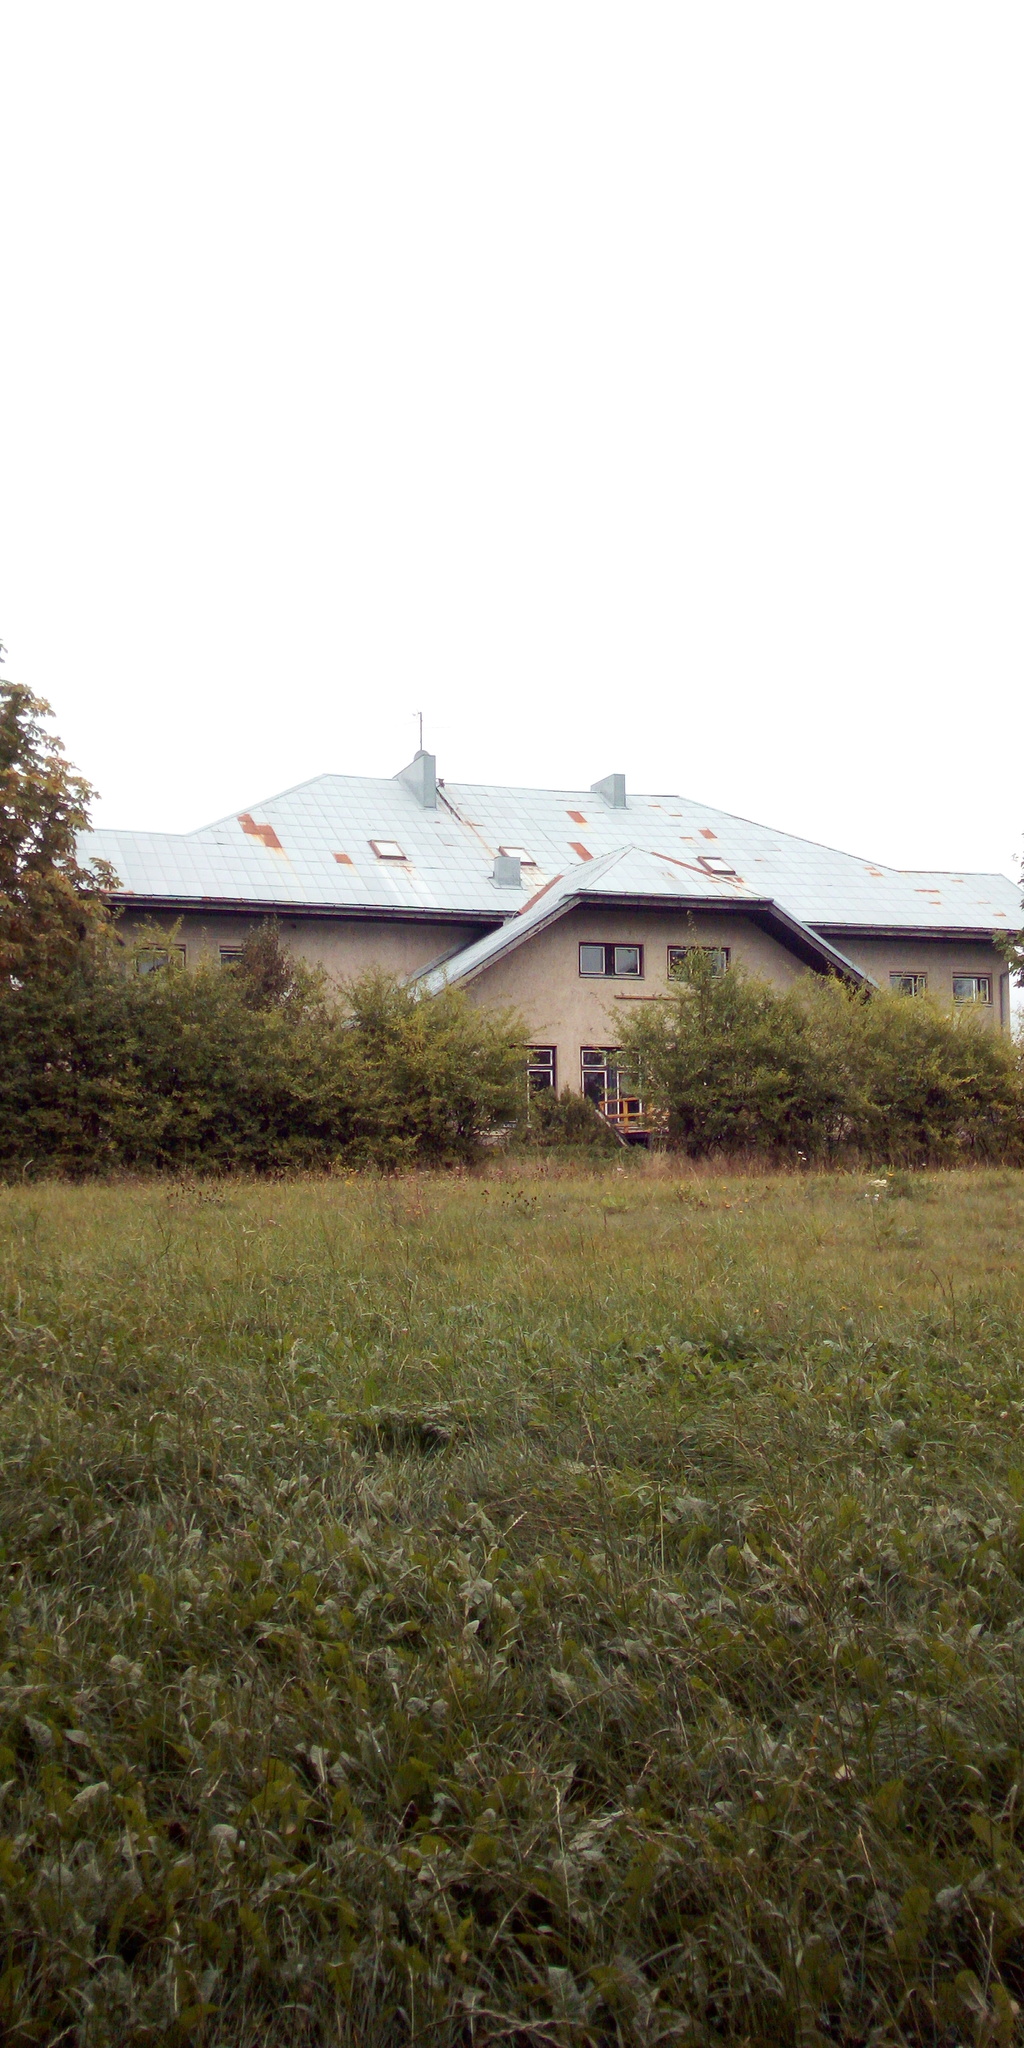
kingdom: Animalia
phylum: Chordata
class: Mammalia
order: Artiodactyla
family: Cervidae
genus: Capreolus
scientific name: Capreolus capreolus
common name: Western roe deer
